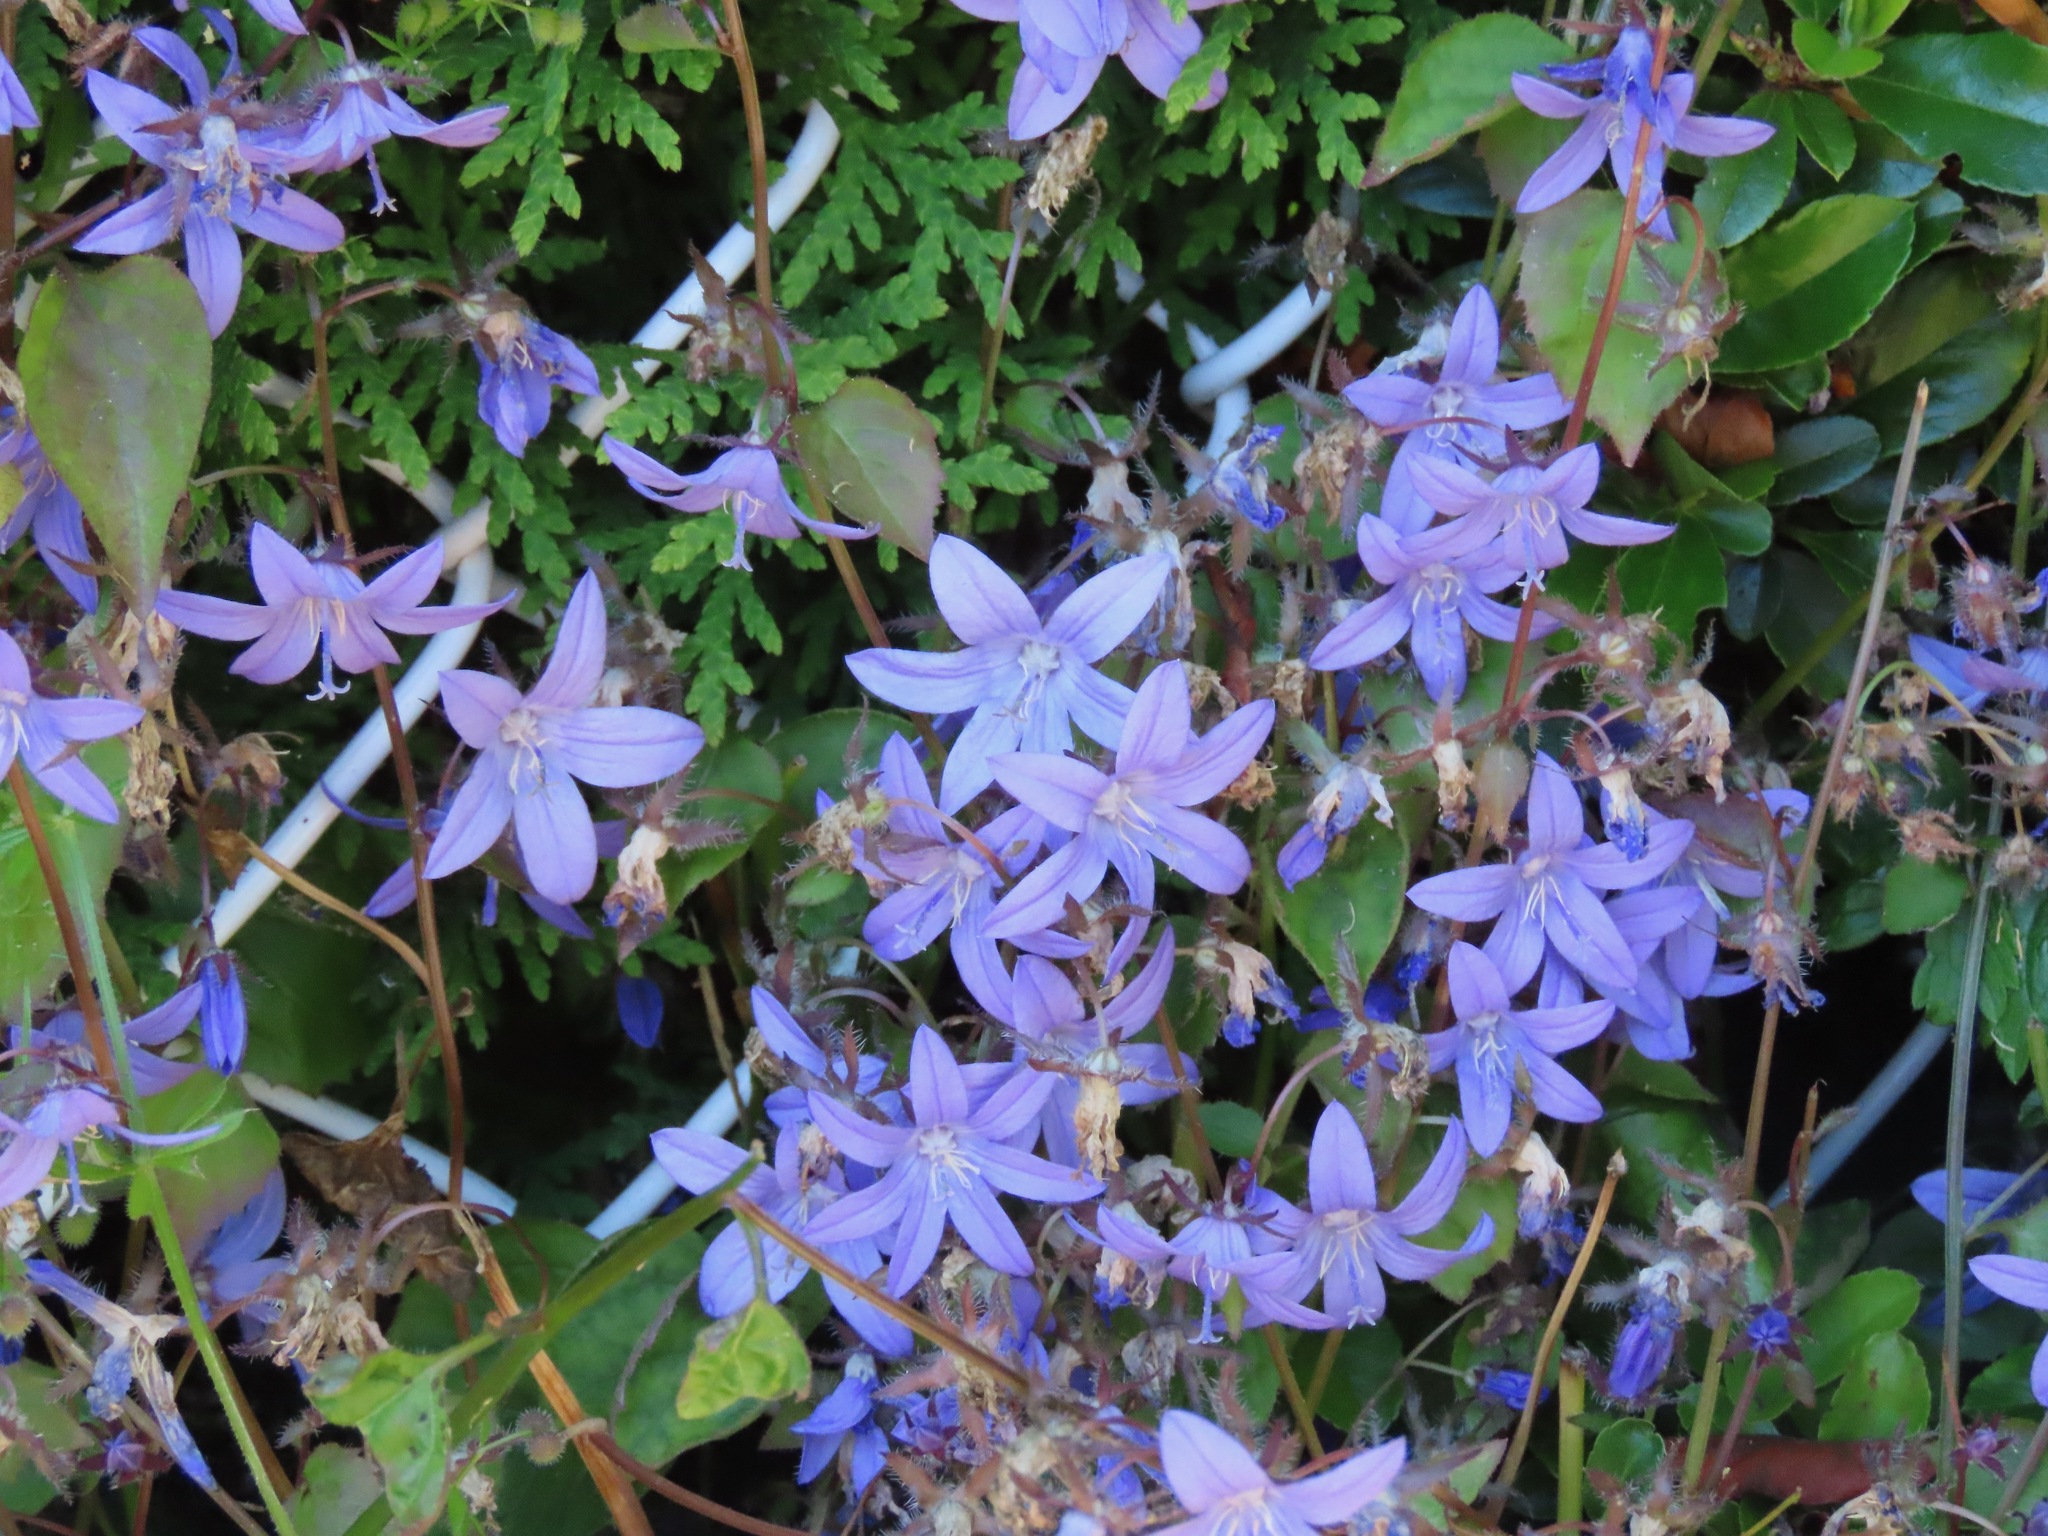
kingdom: Plantae
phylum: Tracheophyta
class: Magnoliopsida
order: Asterales
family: Campanulaceae
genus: Campanula
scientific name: Campanula poscharskyana
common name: Trailing bellflower
